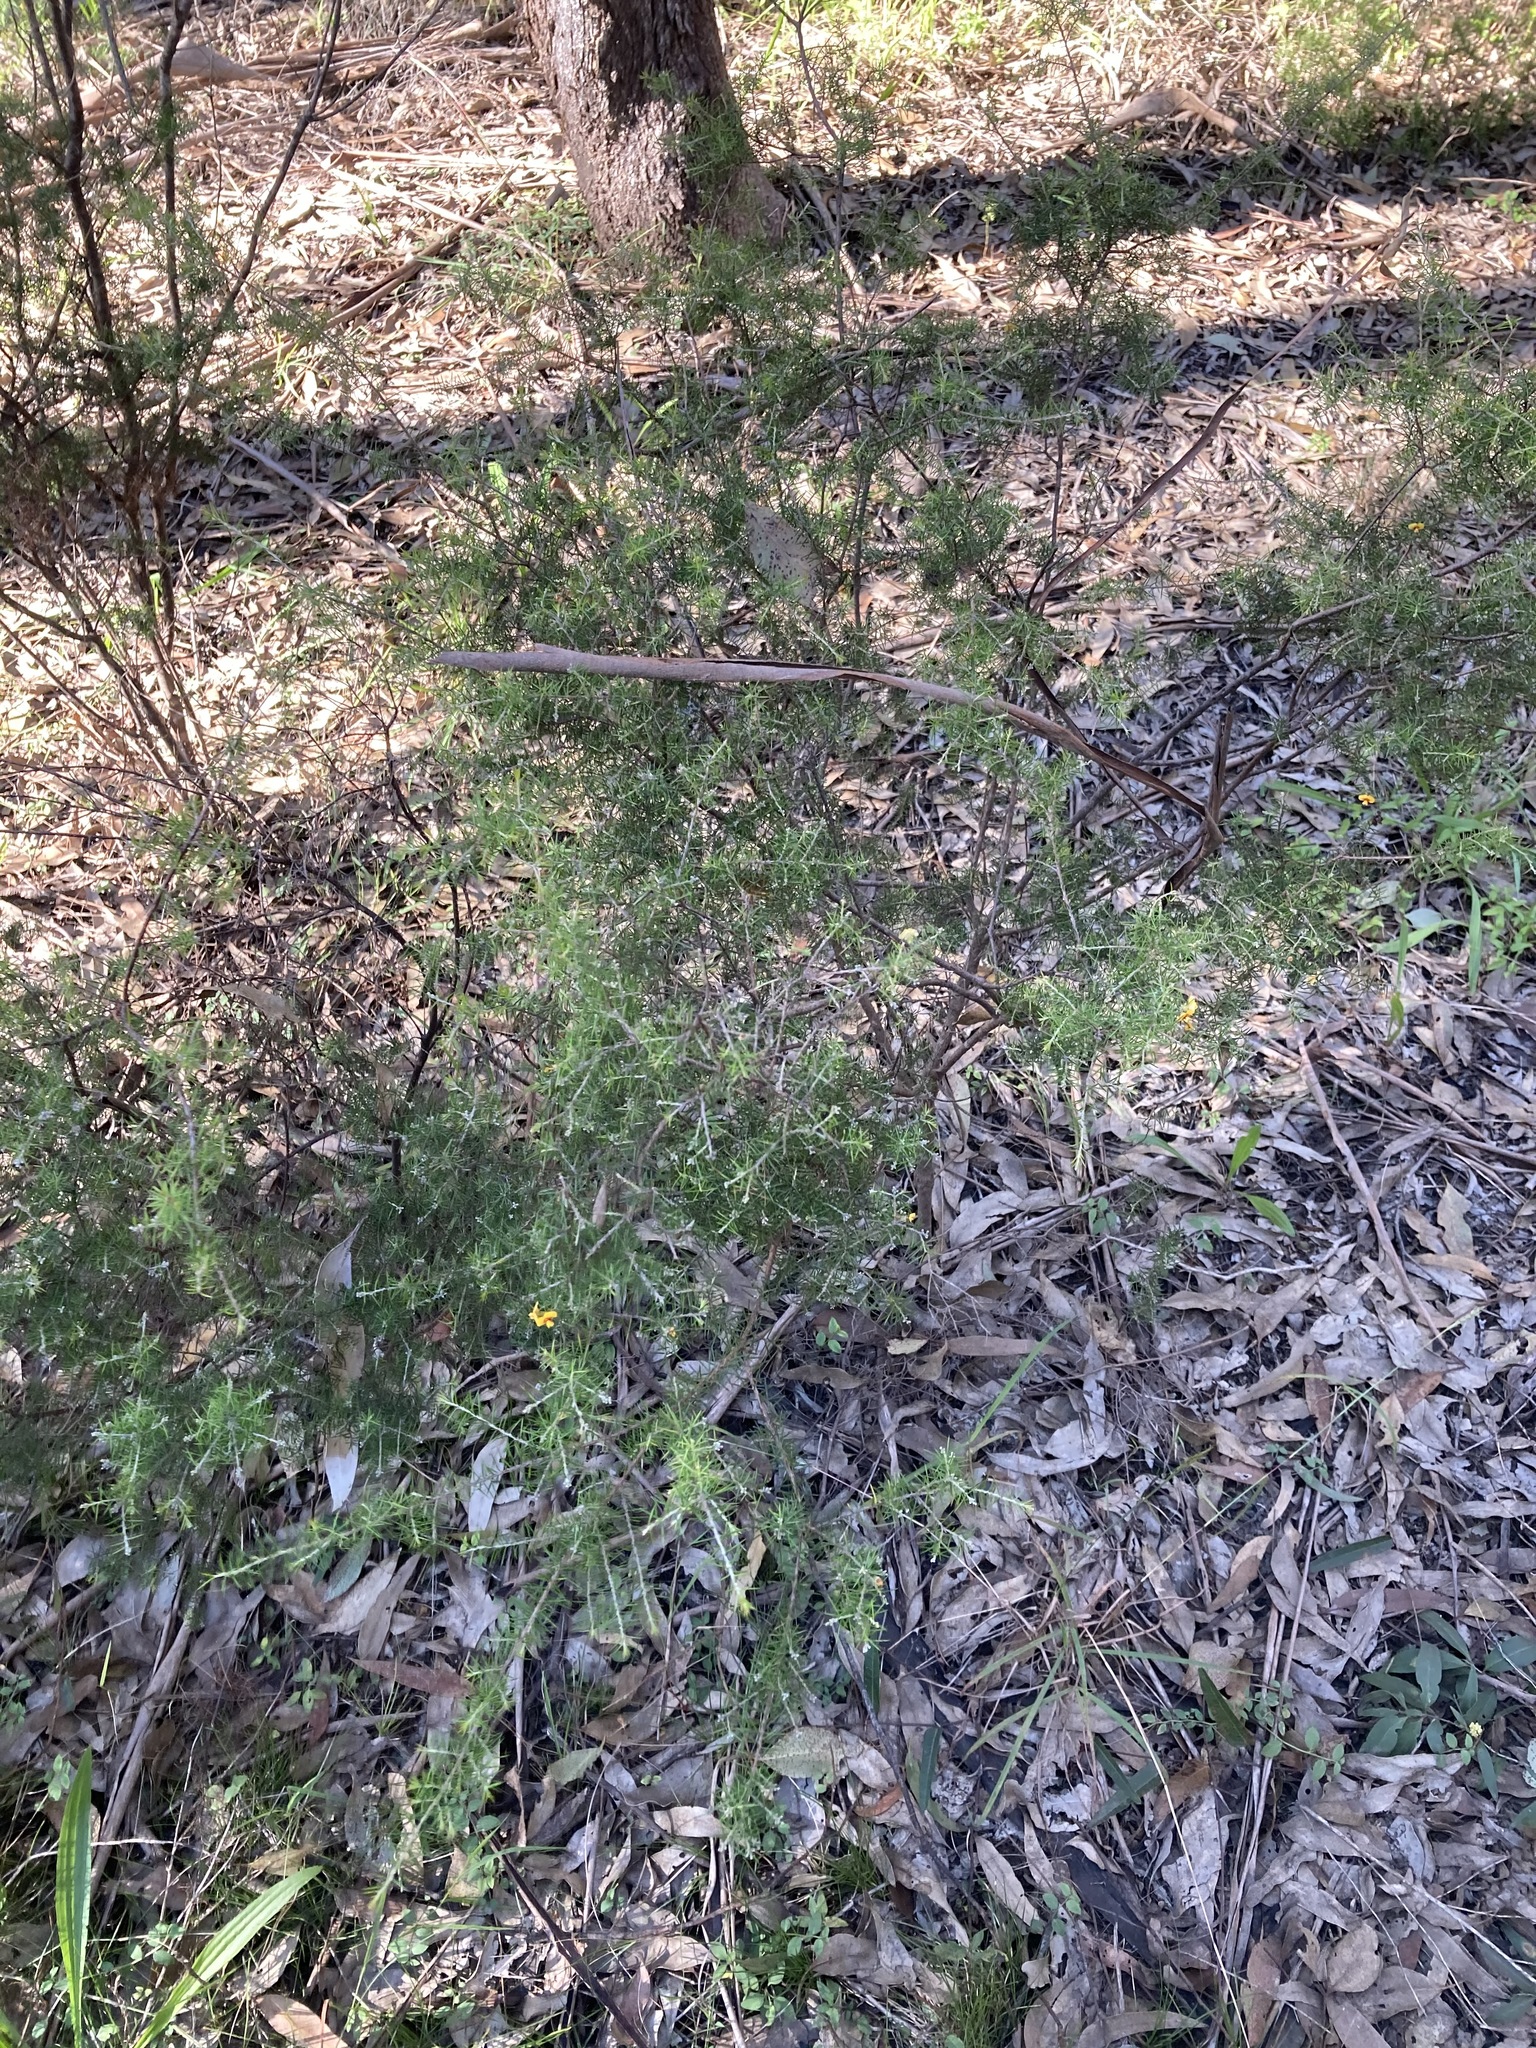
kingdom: Plantae
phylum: Tracheophyta
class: Magnoliopsida
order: Fabales
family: Fabaceae
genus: Dillwynia
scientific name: Dillwynia sieberi
